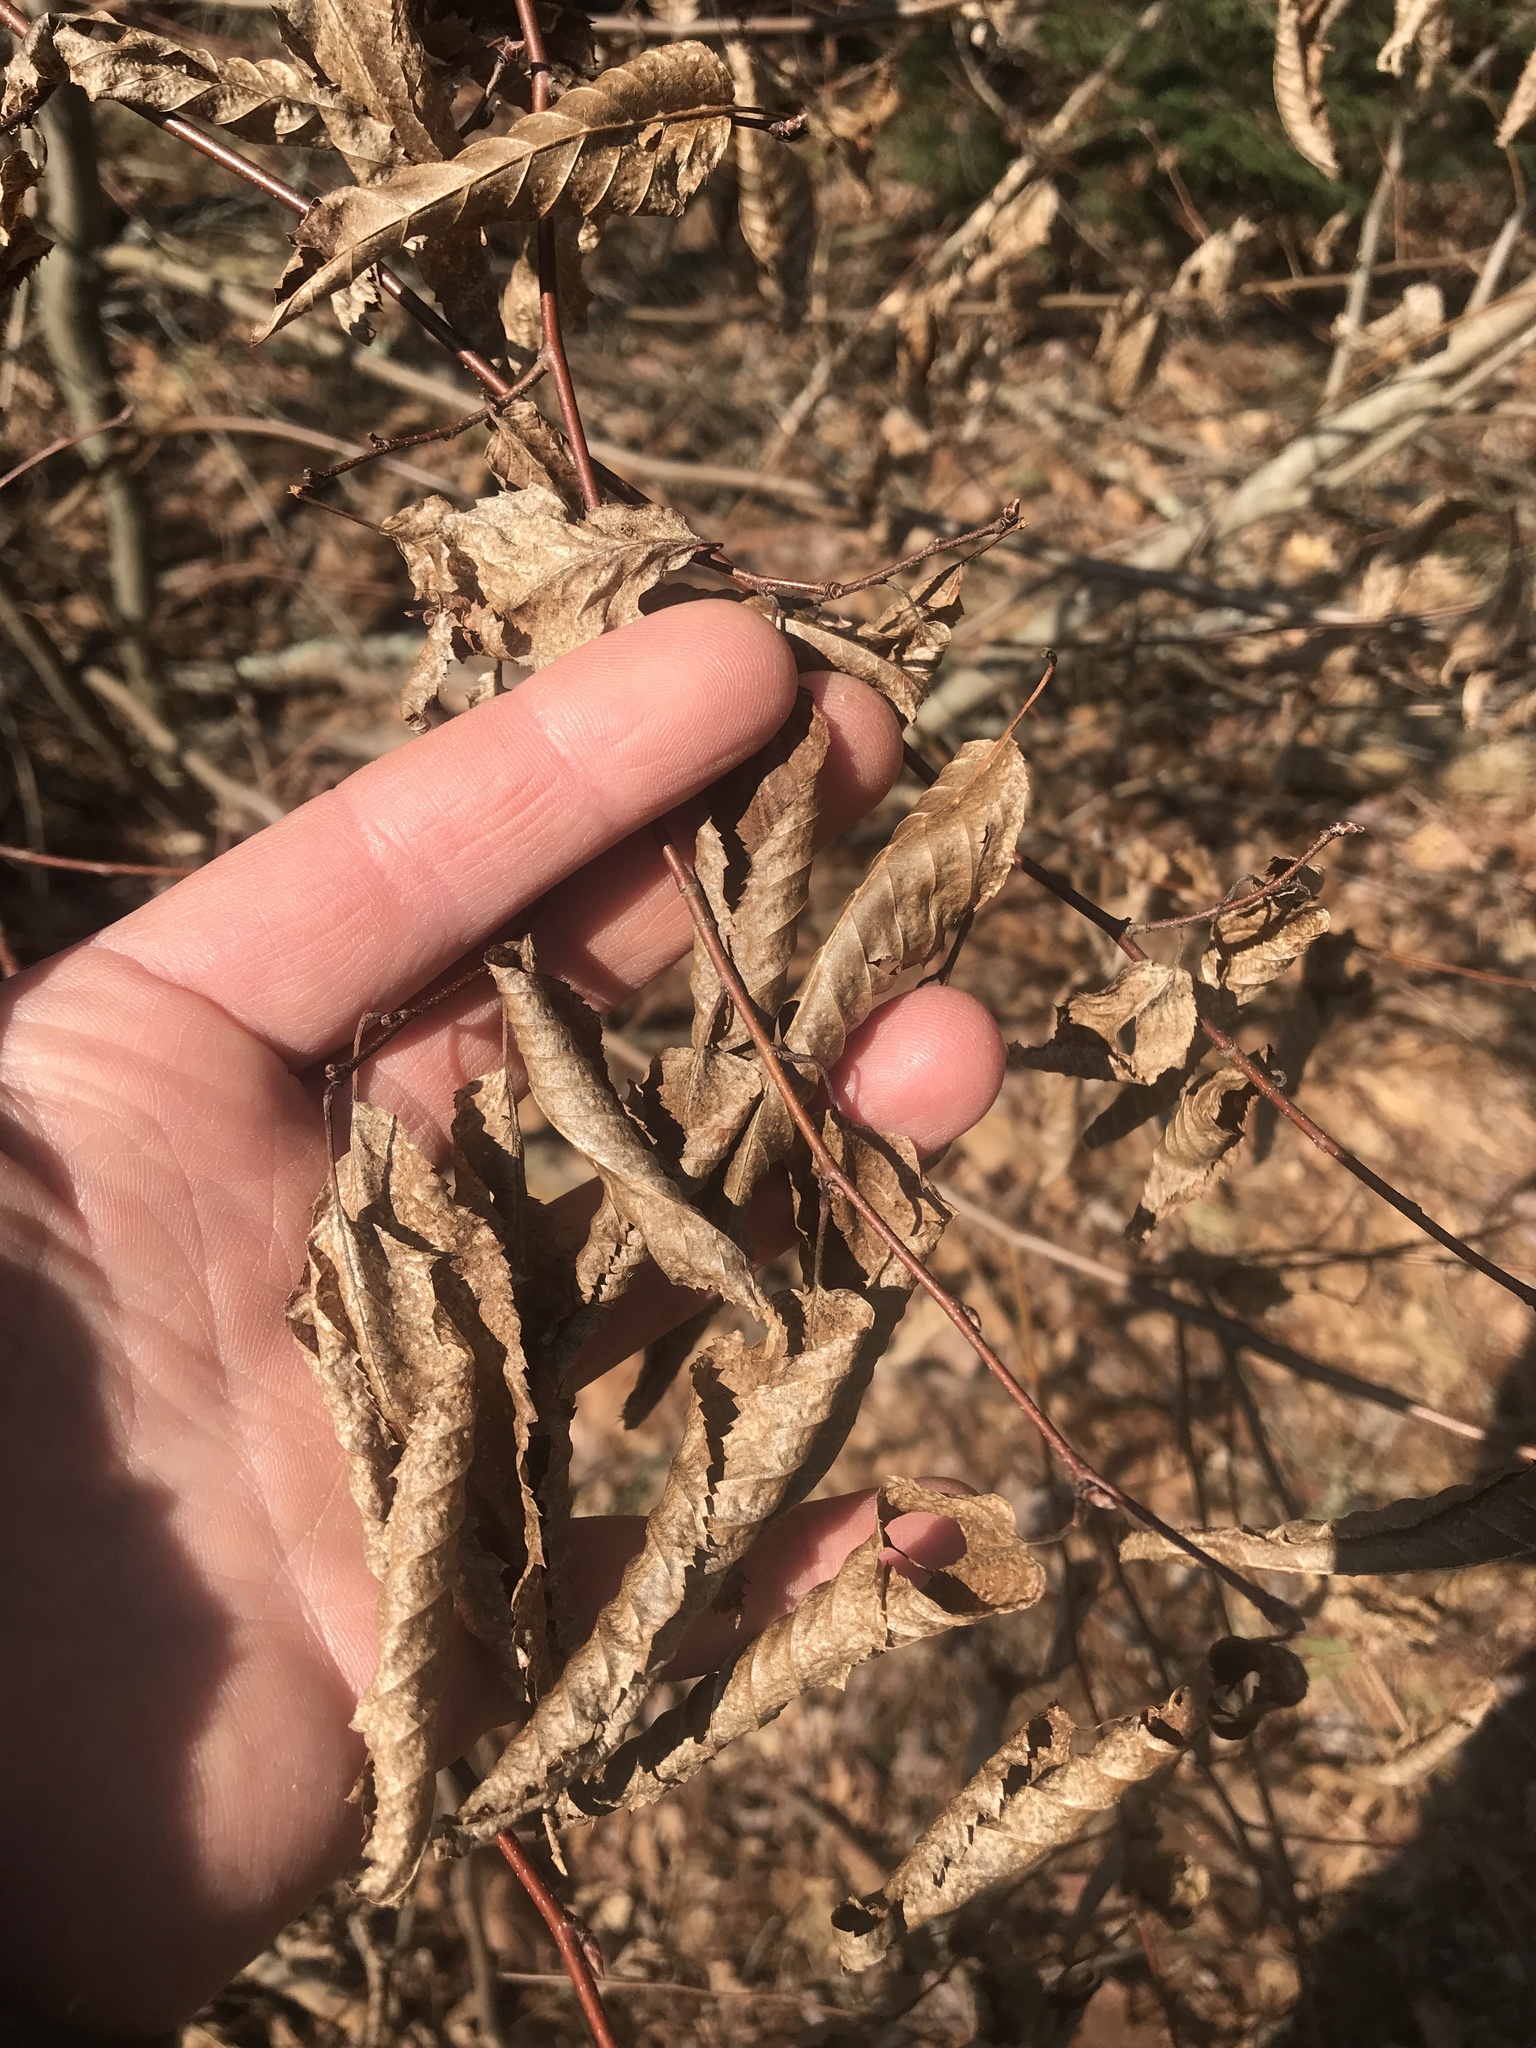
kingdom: Plantae
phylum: Tracheophyta
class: Magnoliopsida
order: Fagales
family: Betulaceae
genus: Carpinus
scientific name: Carpinus caroliniana
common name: American hornbeam
